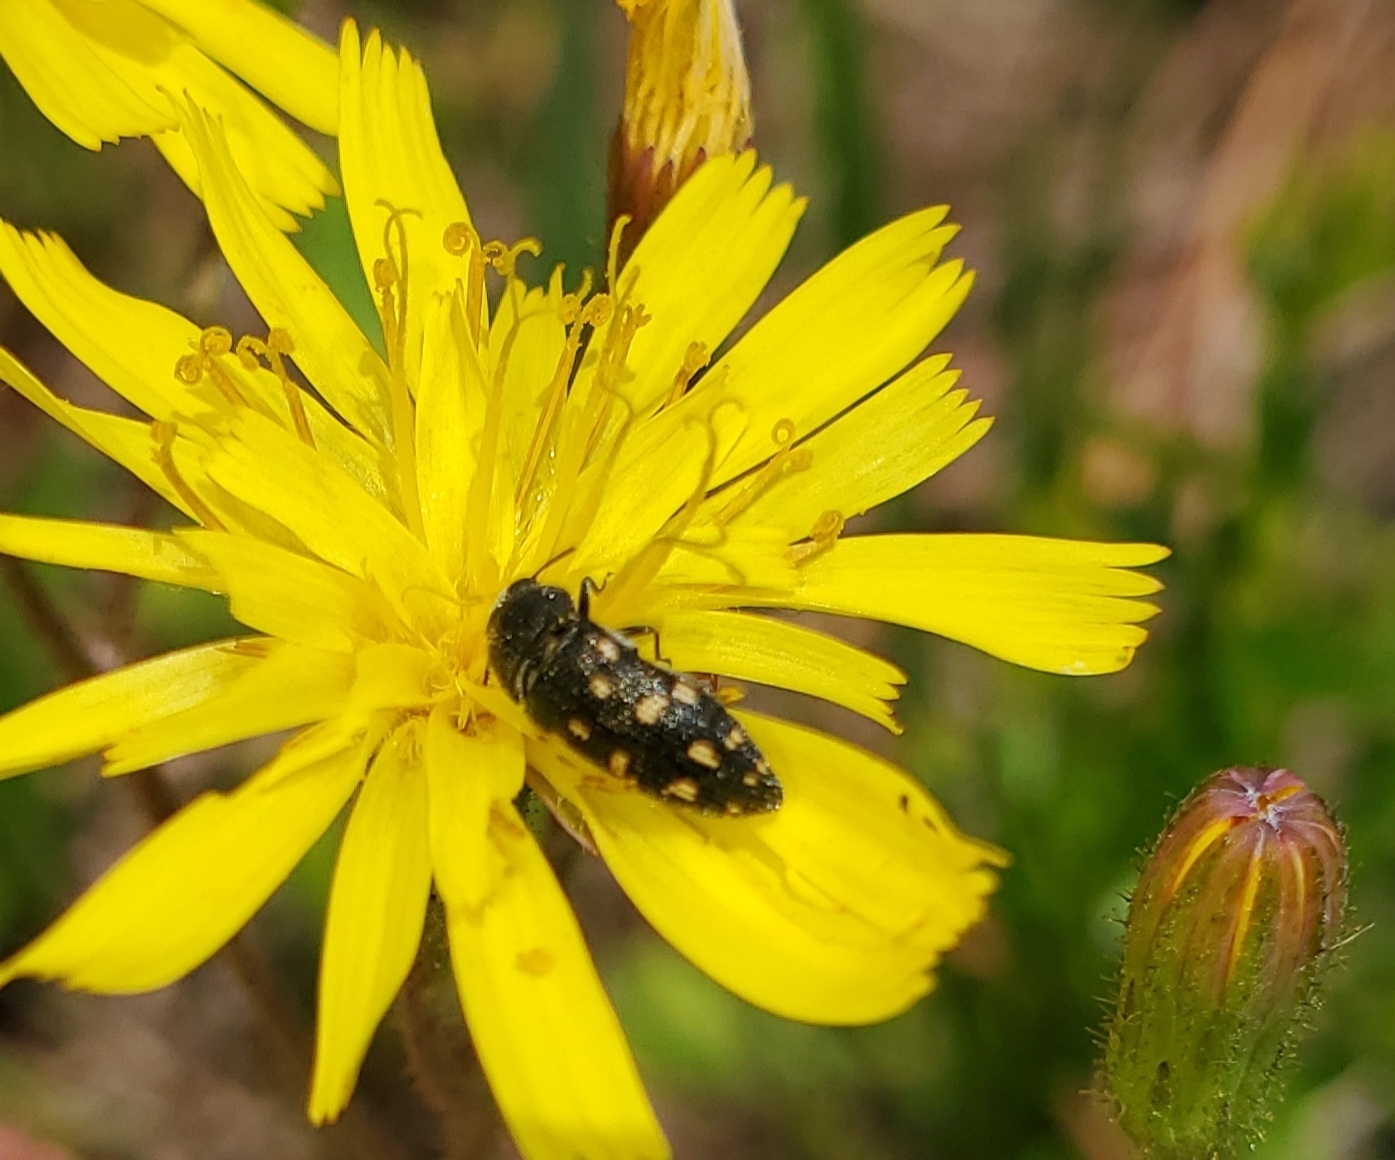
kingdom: Animalia
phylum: Arthropoda
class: Insecta
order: Coleoptera
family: Buprestidae
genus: Acmaeodera
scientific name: Acmaeodera tubulus
